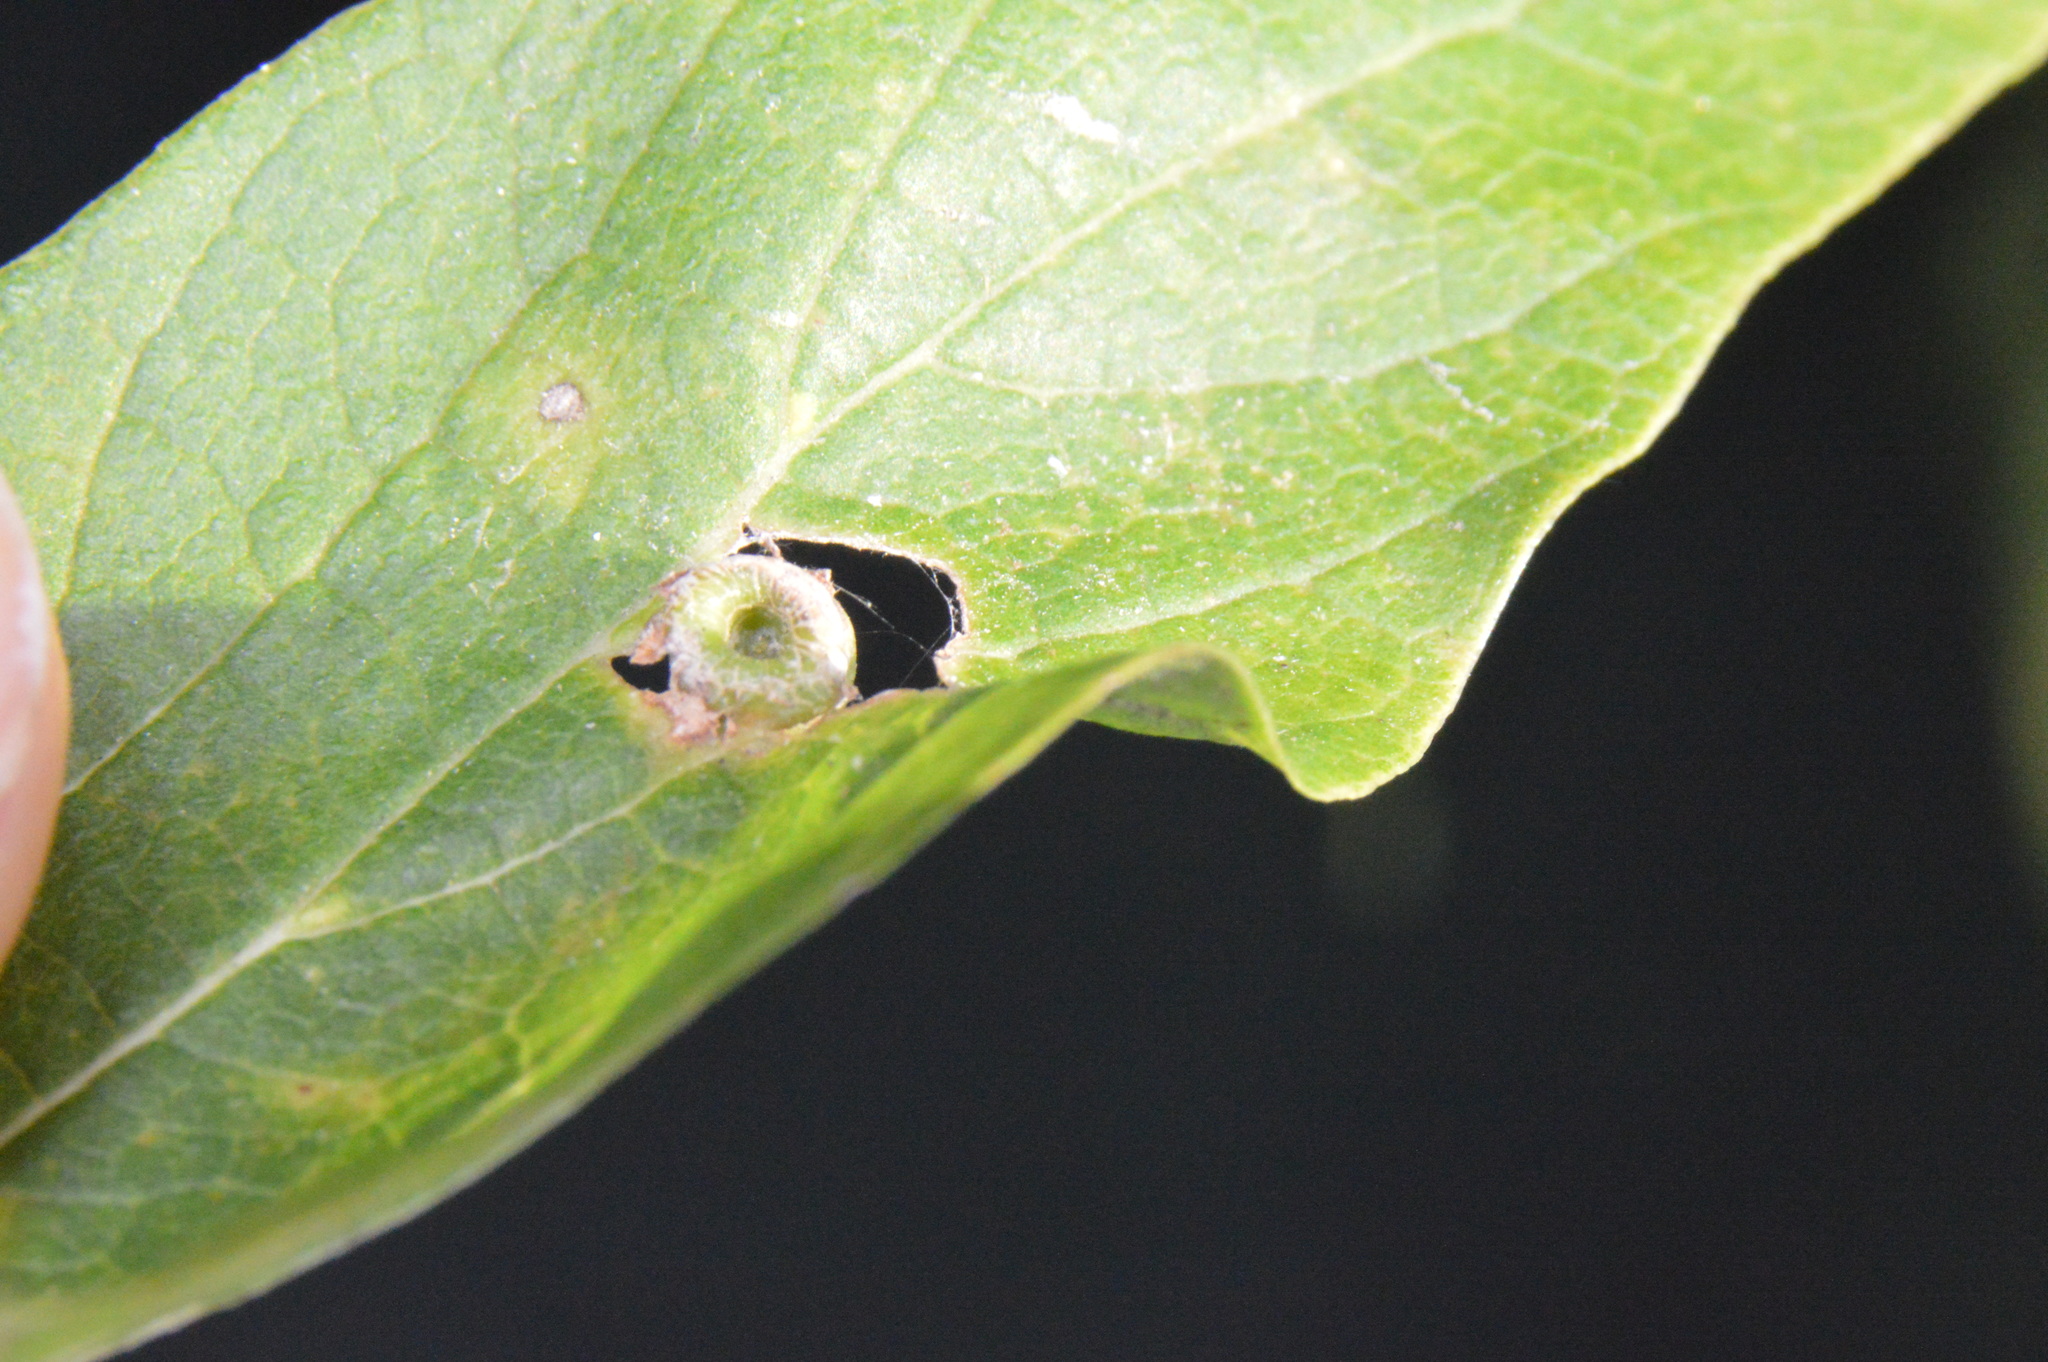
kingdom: Animalia
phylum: Arthropoda
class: Insecta
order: Hemiptera
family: Aphalaridae
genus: Pachypsylla
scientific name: Pachypsylla celtidismamma
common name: Hackberry nipplegall psyllid
